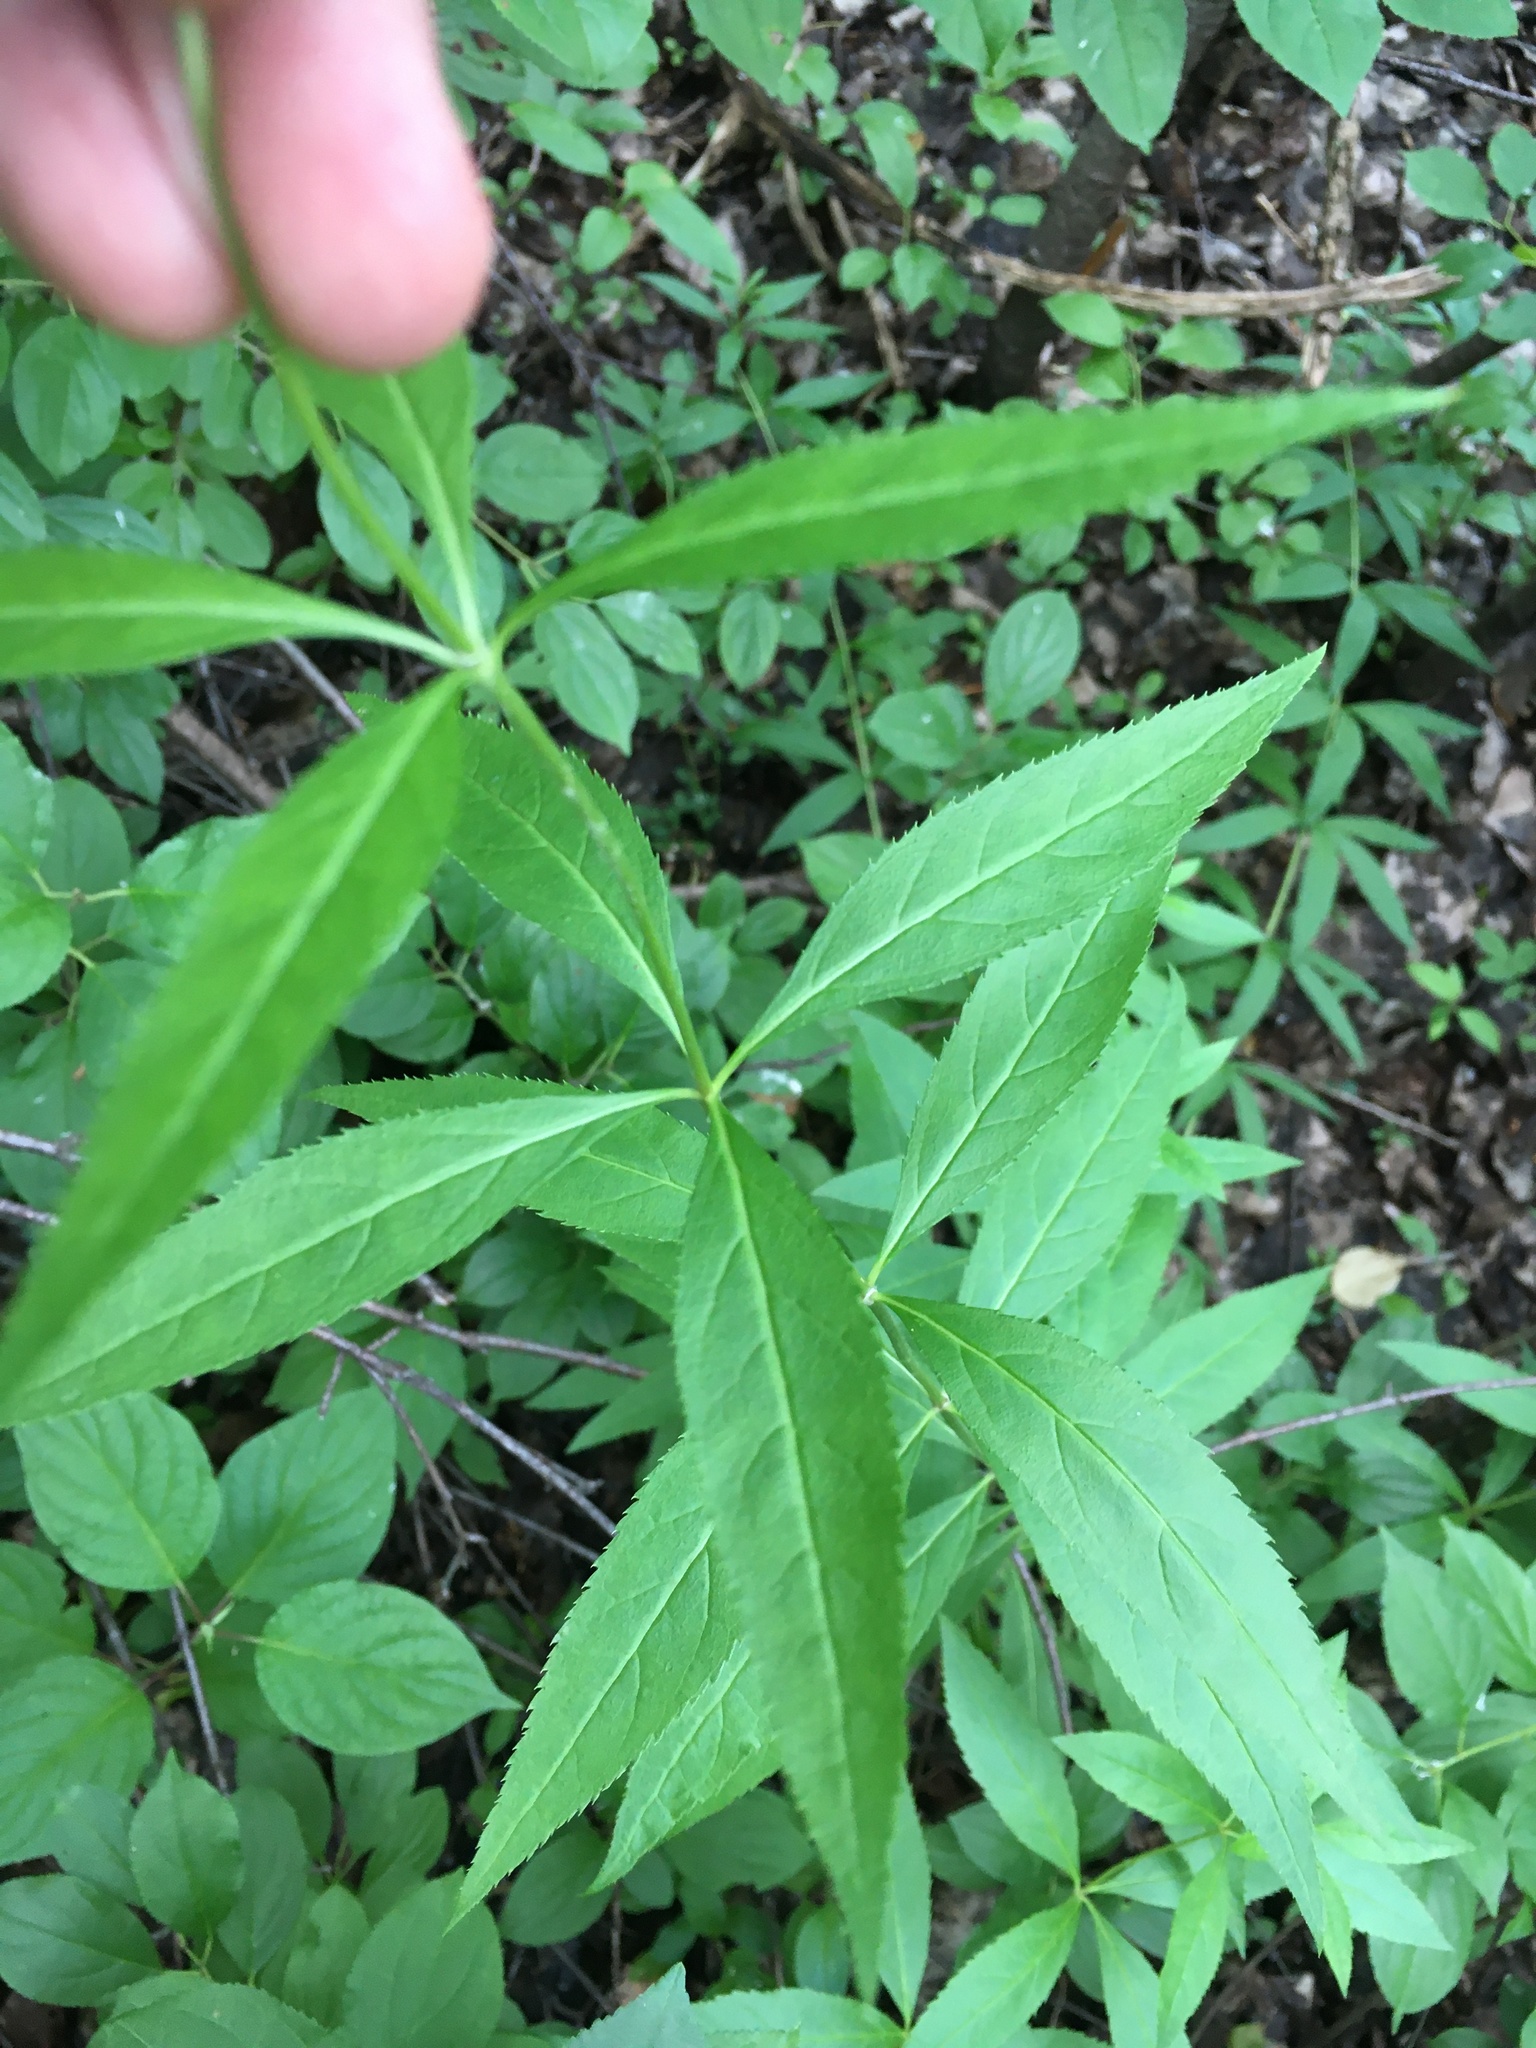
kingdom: Plantae
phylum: Tracheophyta
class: Magnoliopsida
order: Lamiales
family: Plantaginaceae
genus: Veronicastrum
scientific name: Veronicastrum virginicum
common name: Blackroot
